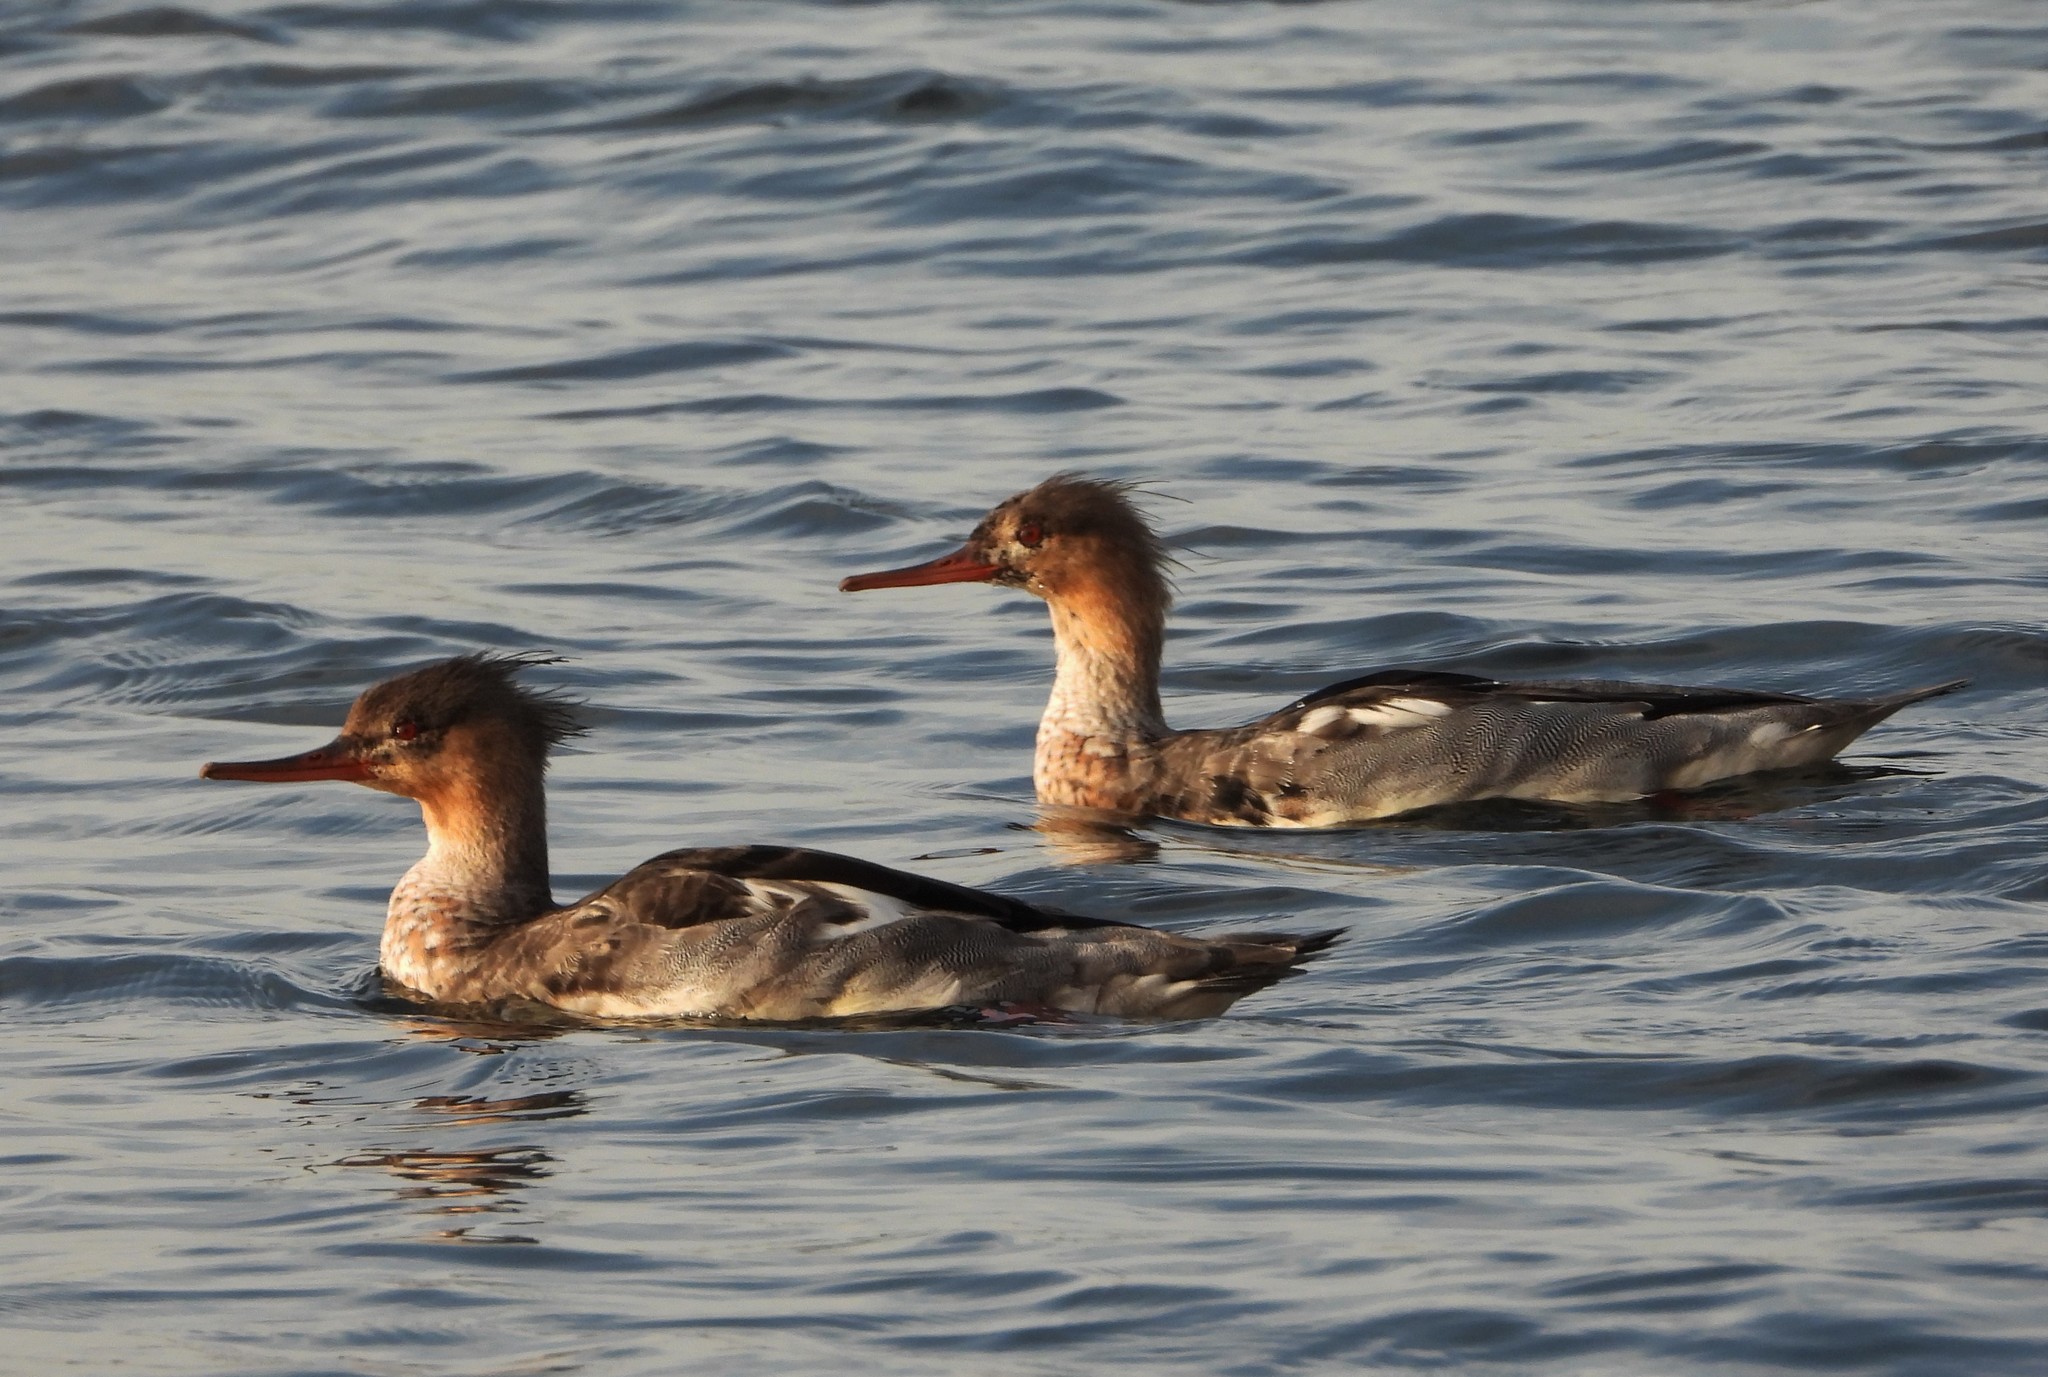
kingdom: Animalia
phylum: Chordata
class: Aves
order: Anseriformes
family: Anatidae
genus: Mergus
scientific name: Mergus serrator
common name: Red-breasted merganser
